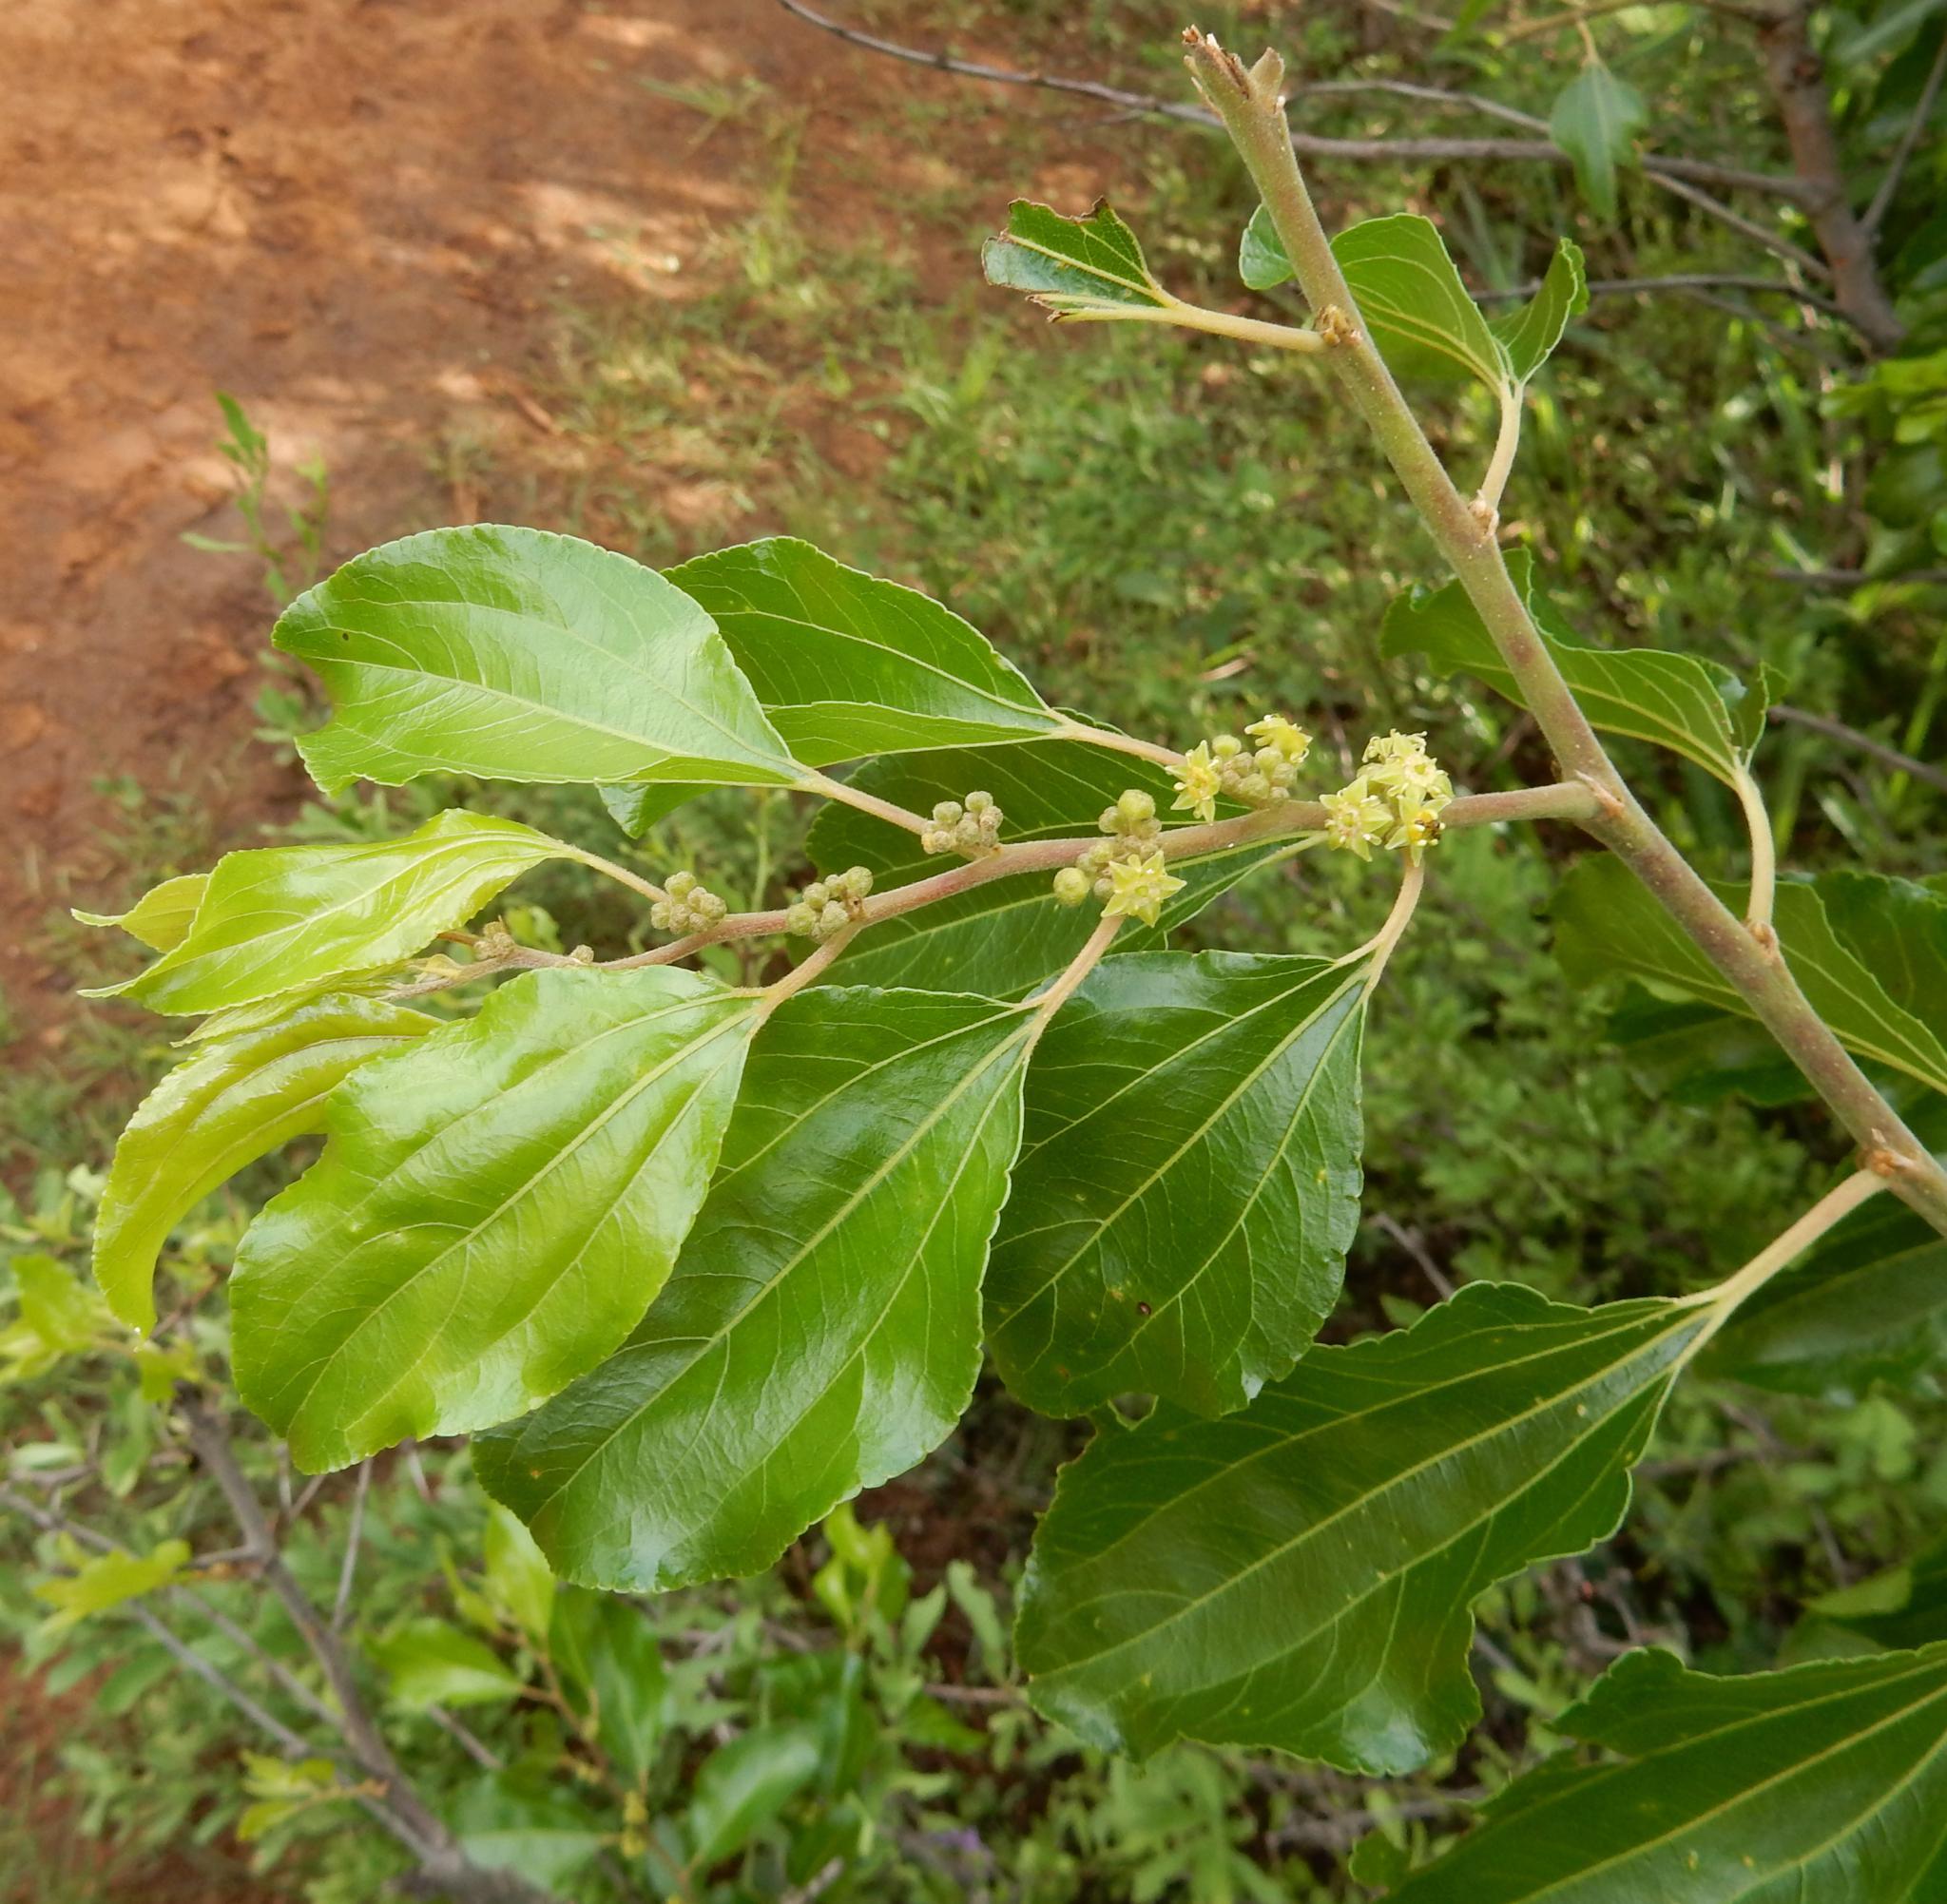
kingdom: Plantae
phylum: Tracheophyta
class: Magnoliopsida
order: Rosales
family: Rhamnaceae
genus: Ziziphus
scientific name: Ziziphus mucronata
